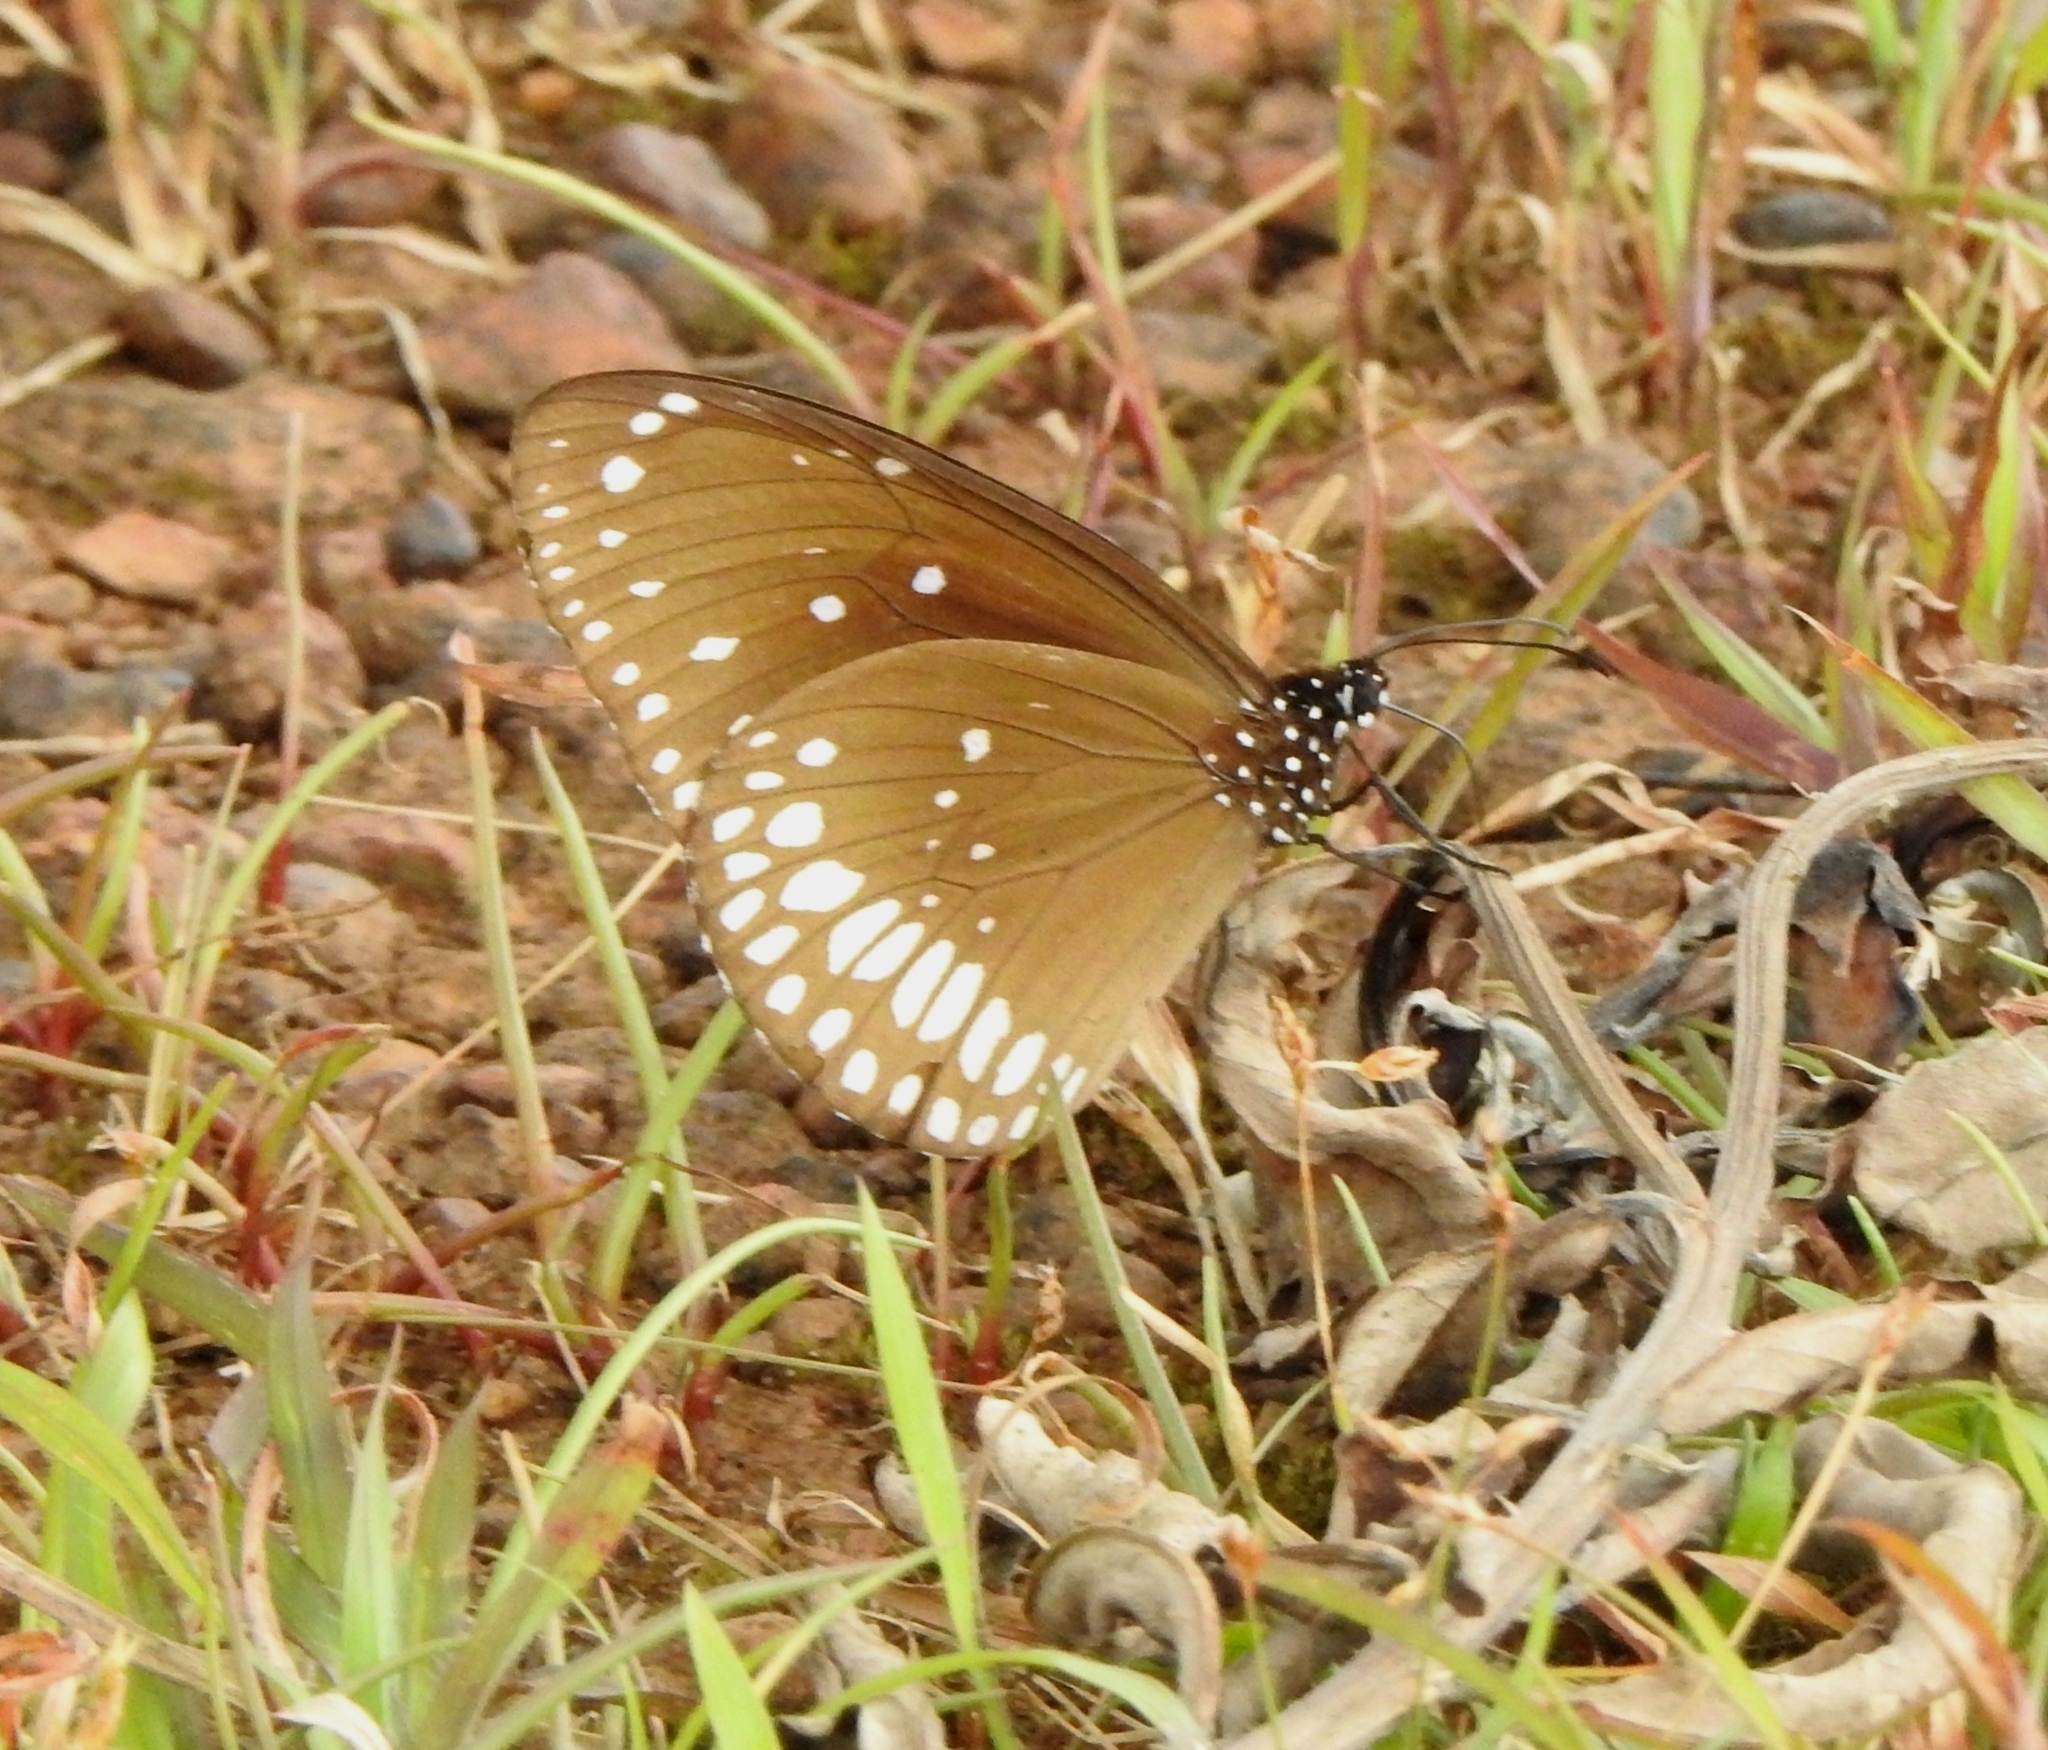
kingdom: Animalia
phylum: Arthropoda
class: Insecta
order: Lepidoptera
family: Nymphalidae
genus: Euploea
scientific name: Euploea core
